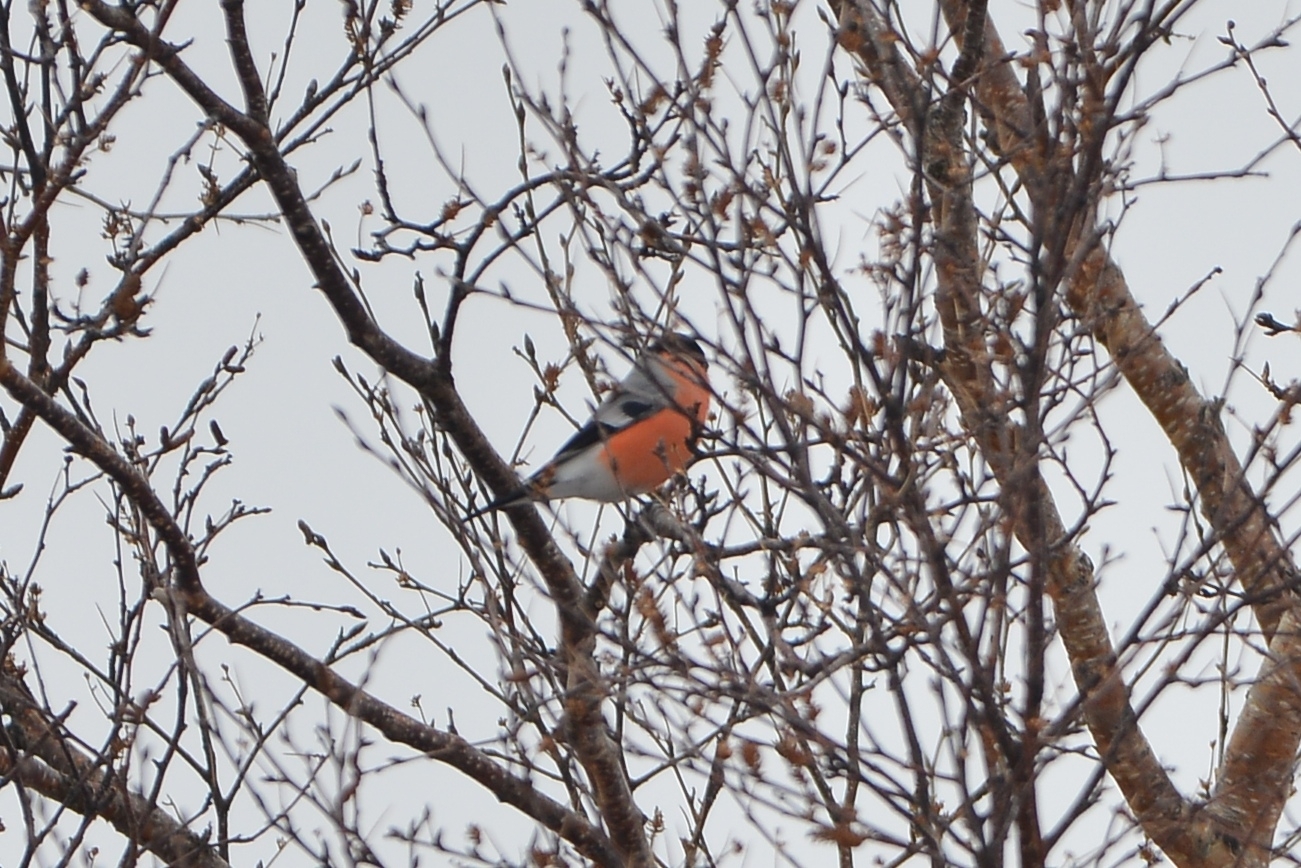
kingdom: Animalia
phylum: Chordata
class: Aves
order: Passeriformes
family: Fringillidae
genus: Pyrrhula
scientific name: Pyrrhula pyrrhula
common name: Eurasian bullfinch
